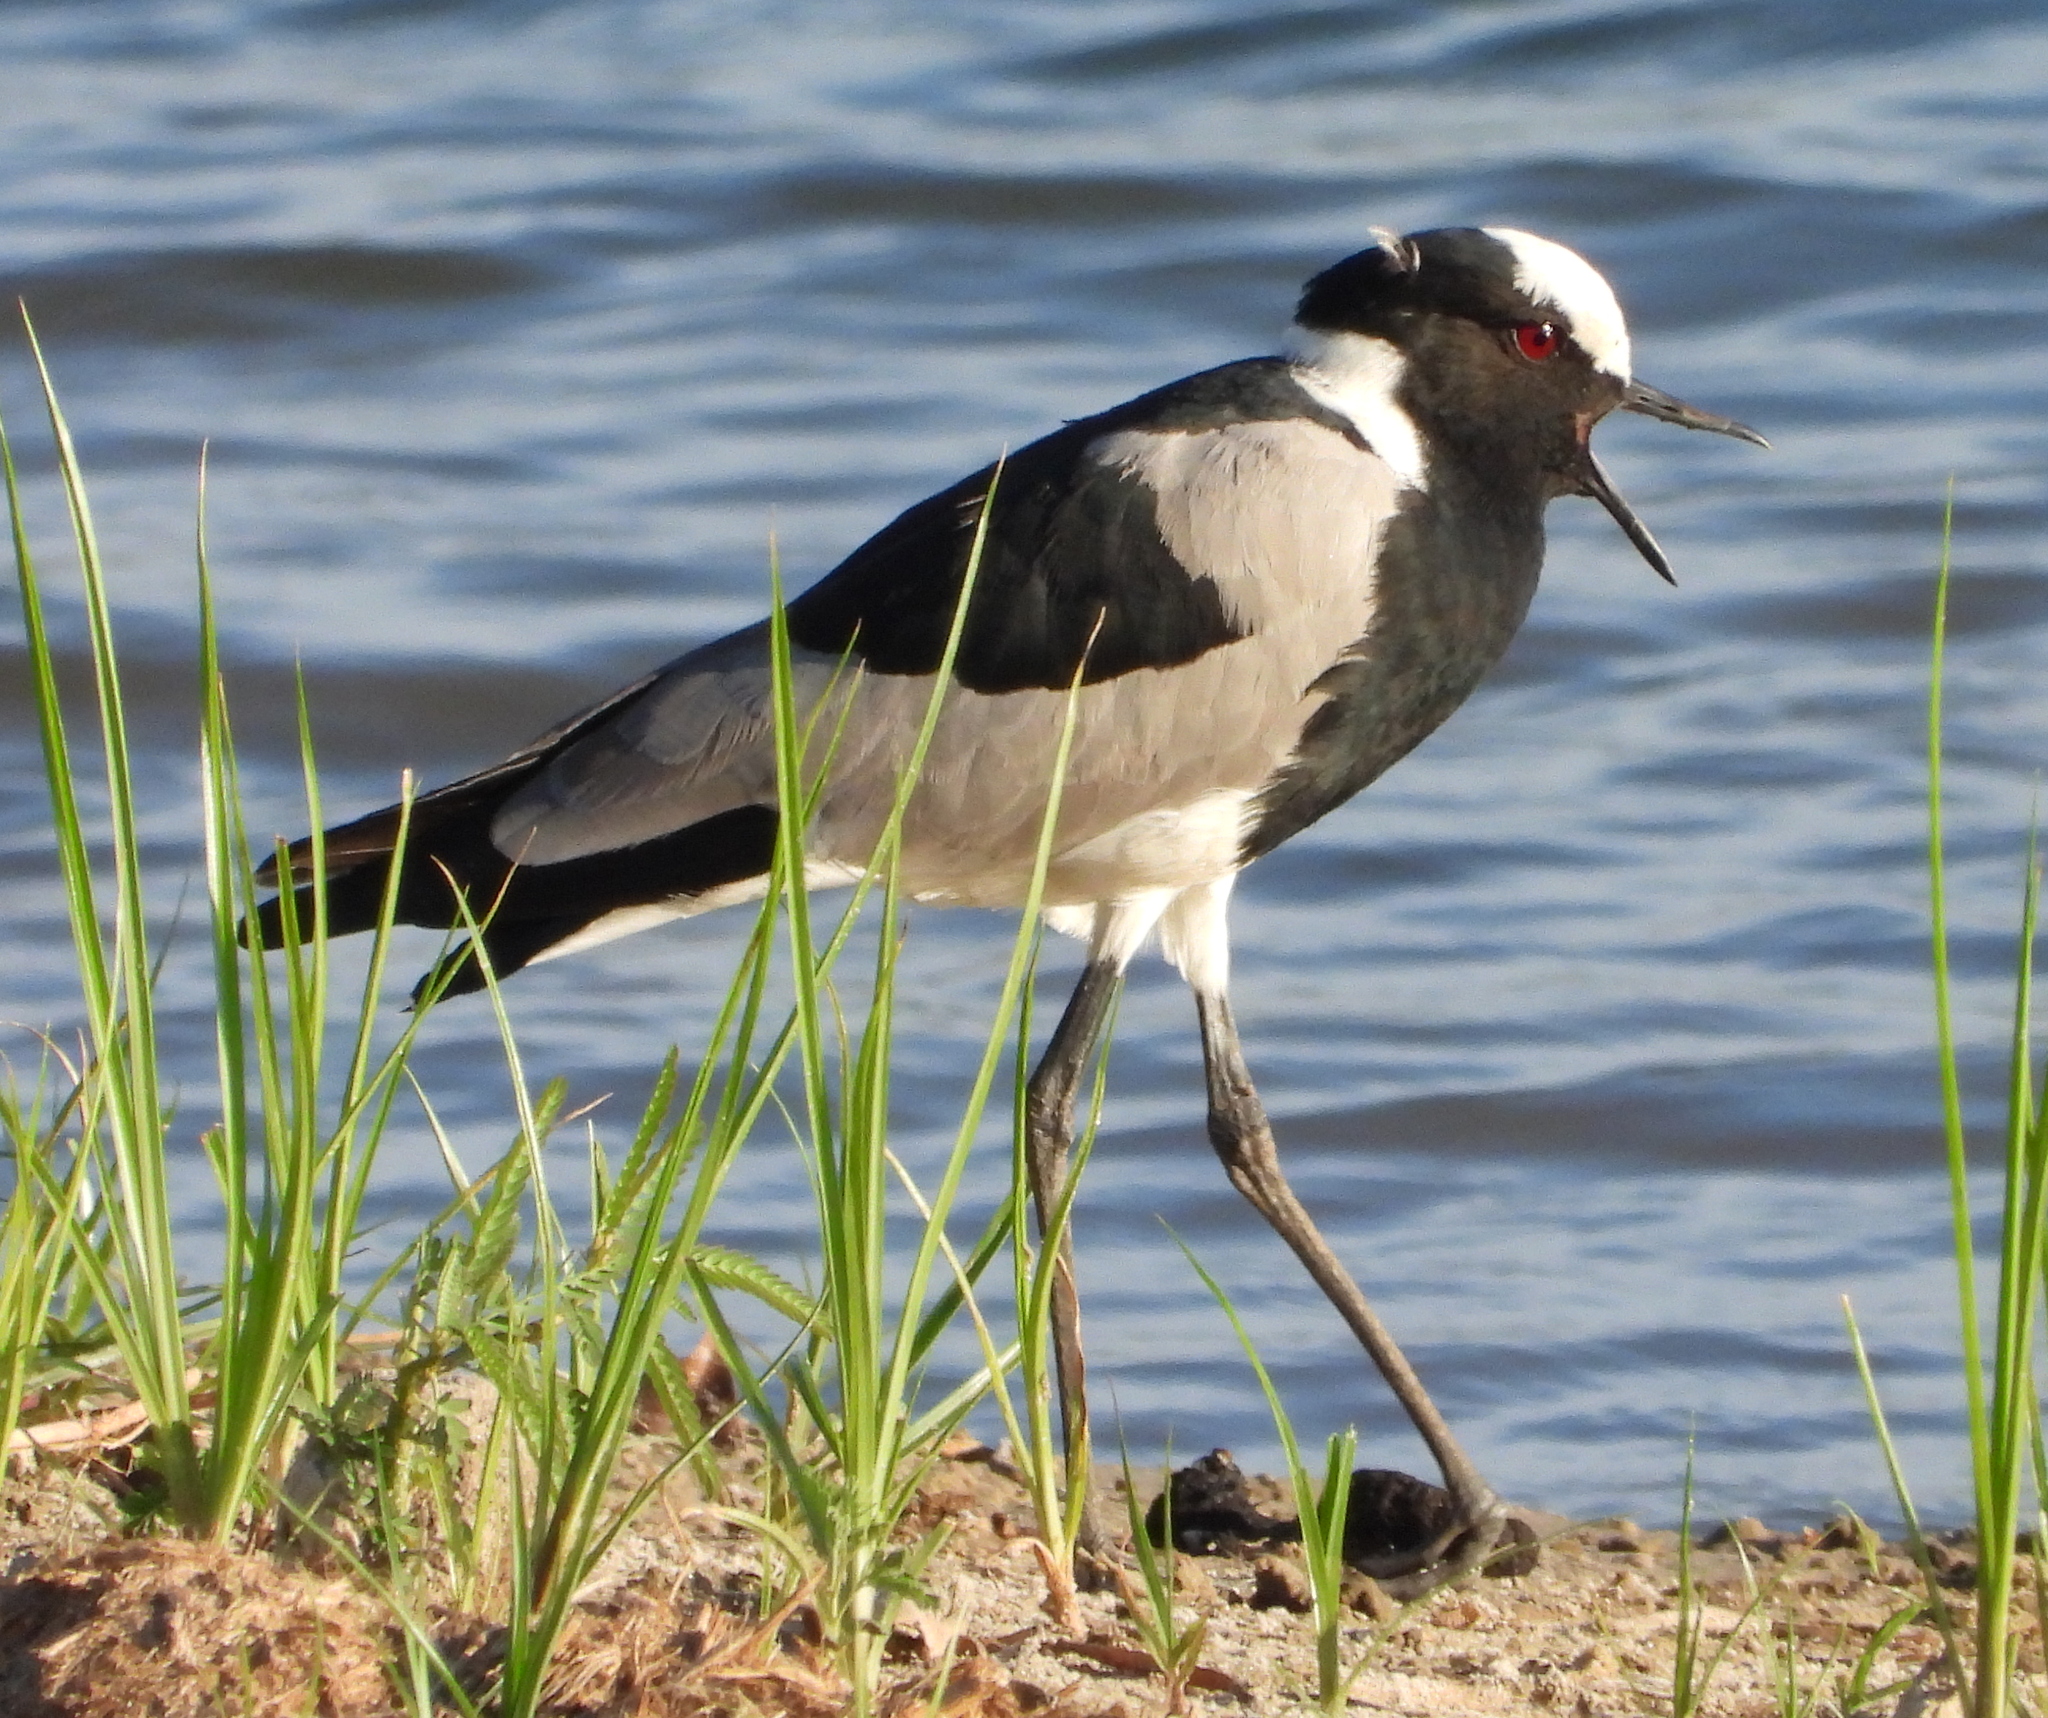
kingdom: Animalia
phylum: Chordata
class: Aves
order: Charadriiformes
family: Charadriidae
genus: Vanellus
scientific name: Vanellus armatus
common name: Blacksmith lapwing
